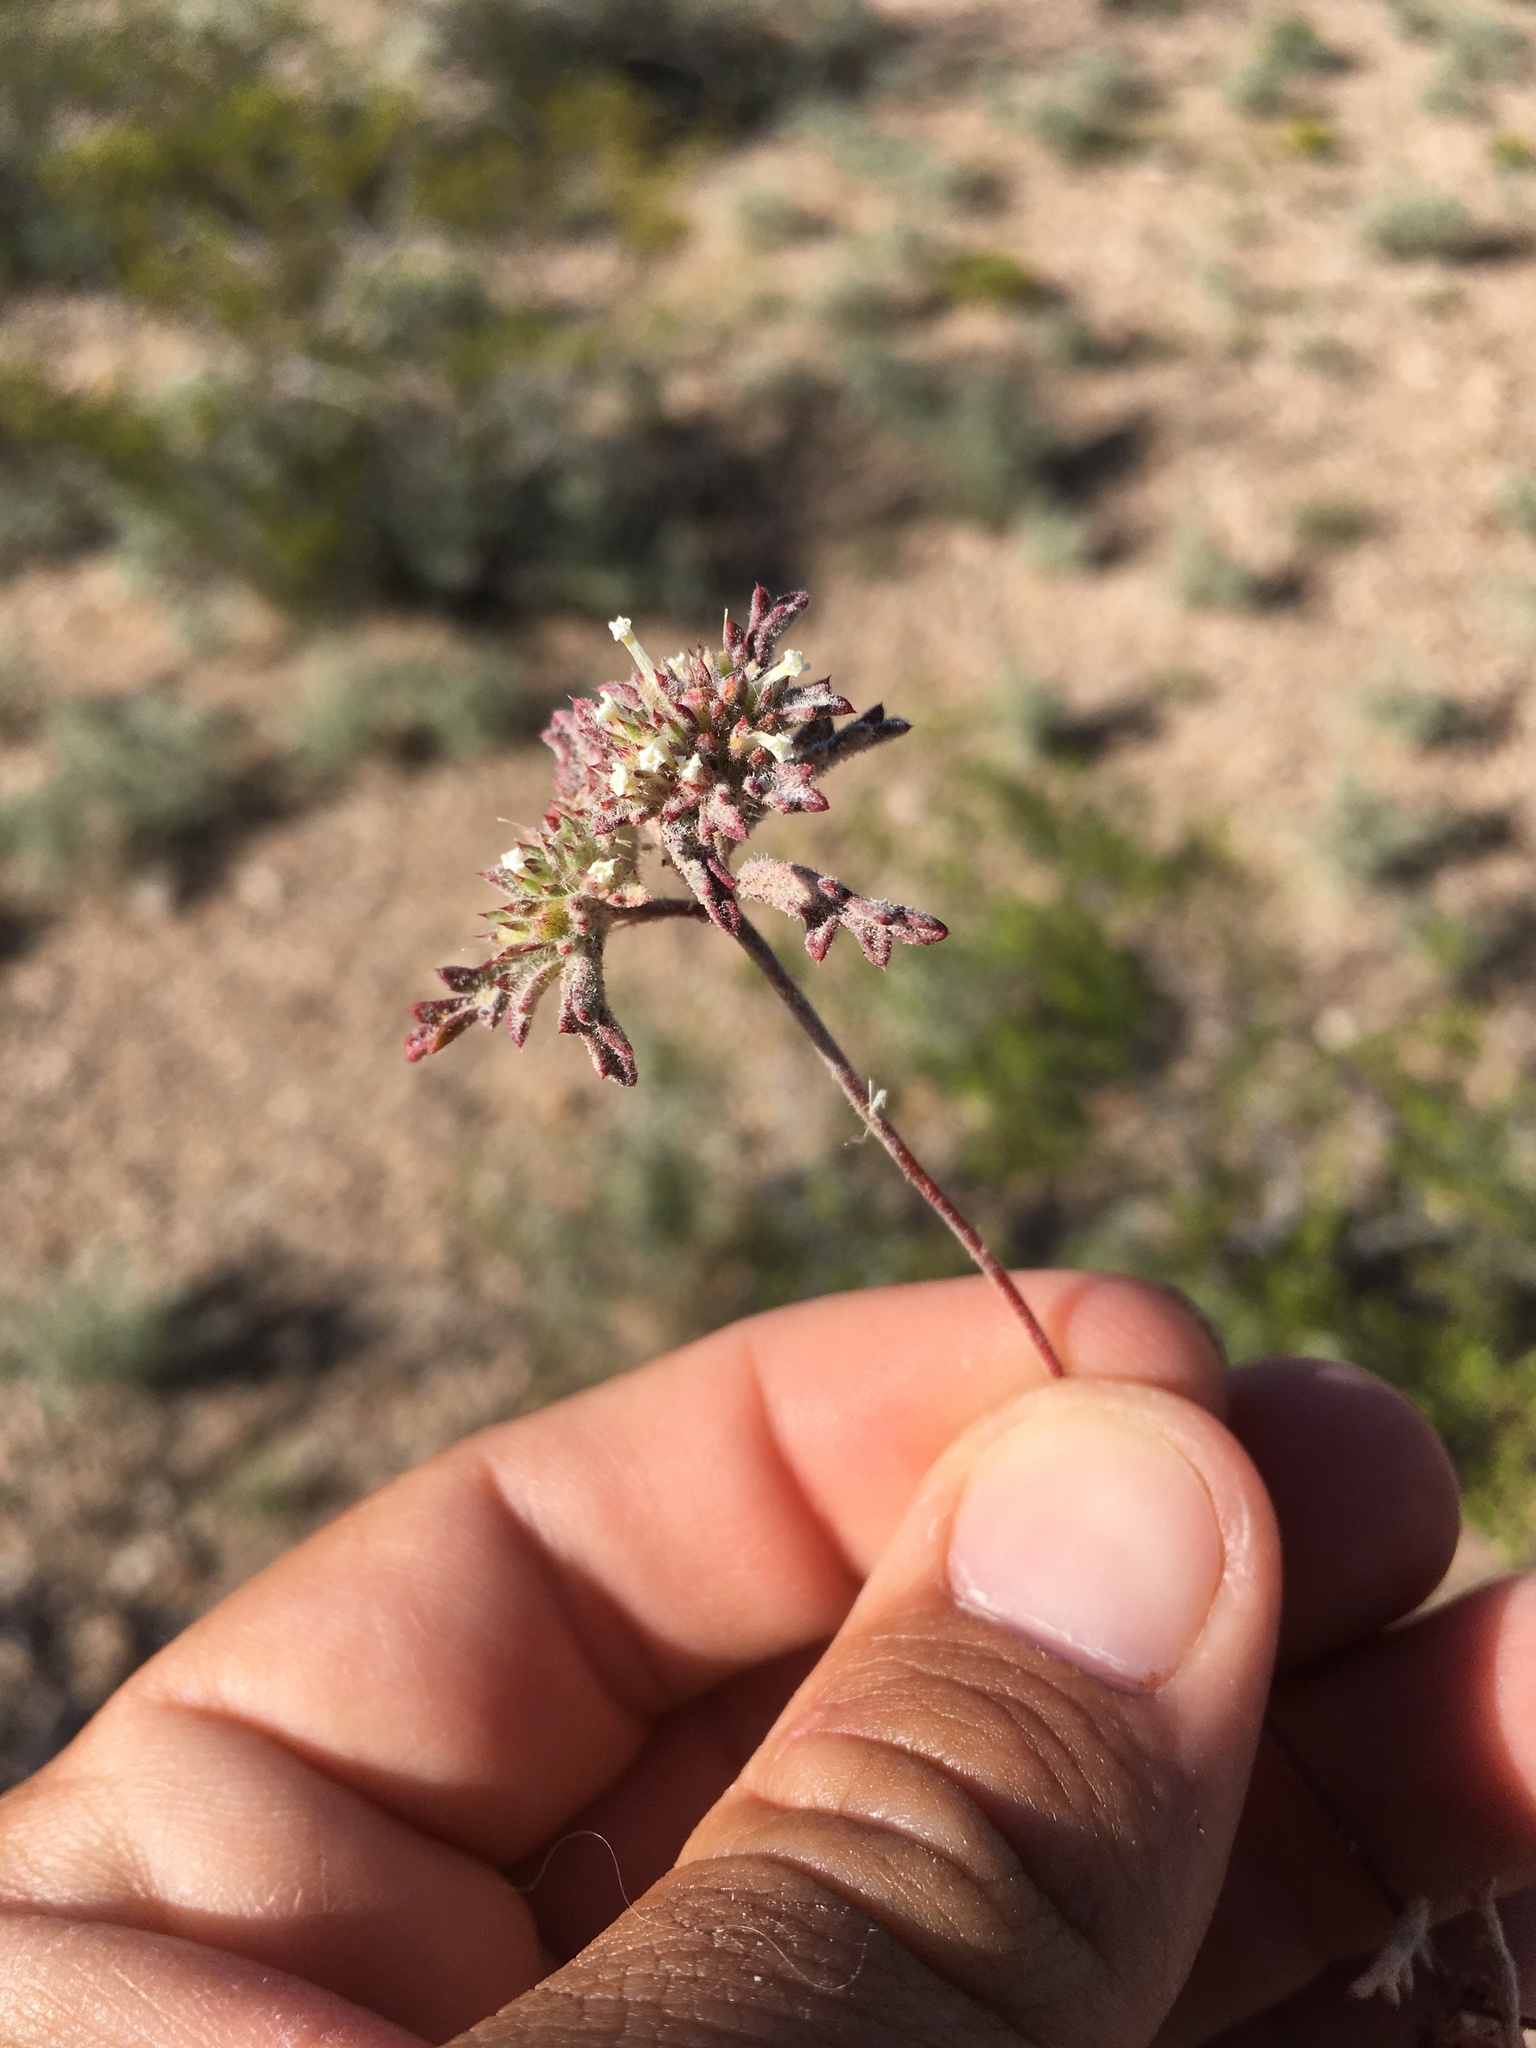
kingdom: Plantae
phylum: Tracheophyta
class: Magnoliopsida
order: Ericales
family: Polemoniaceae
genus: Ipomopsis
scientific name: Ipomopsis polycladon
